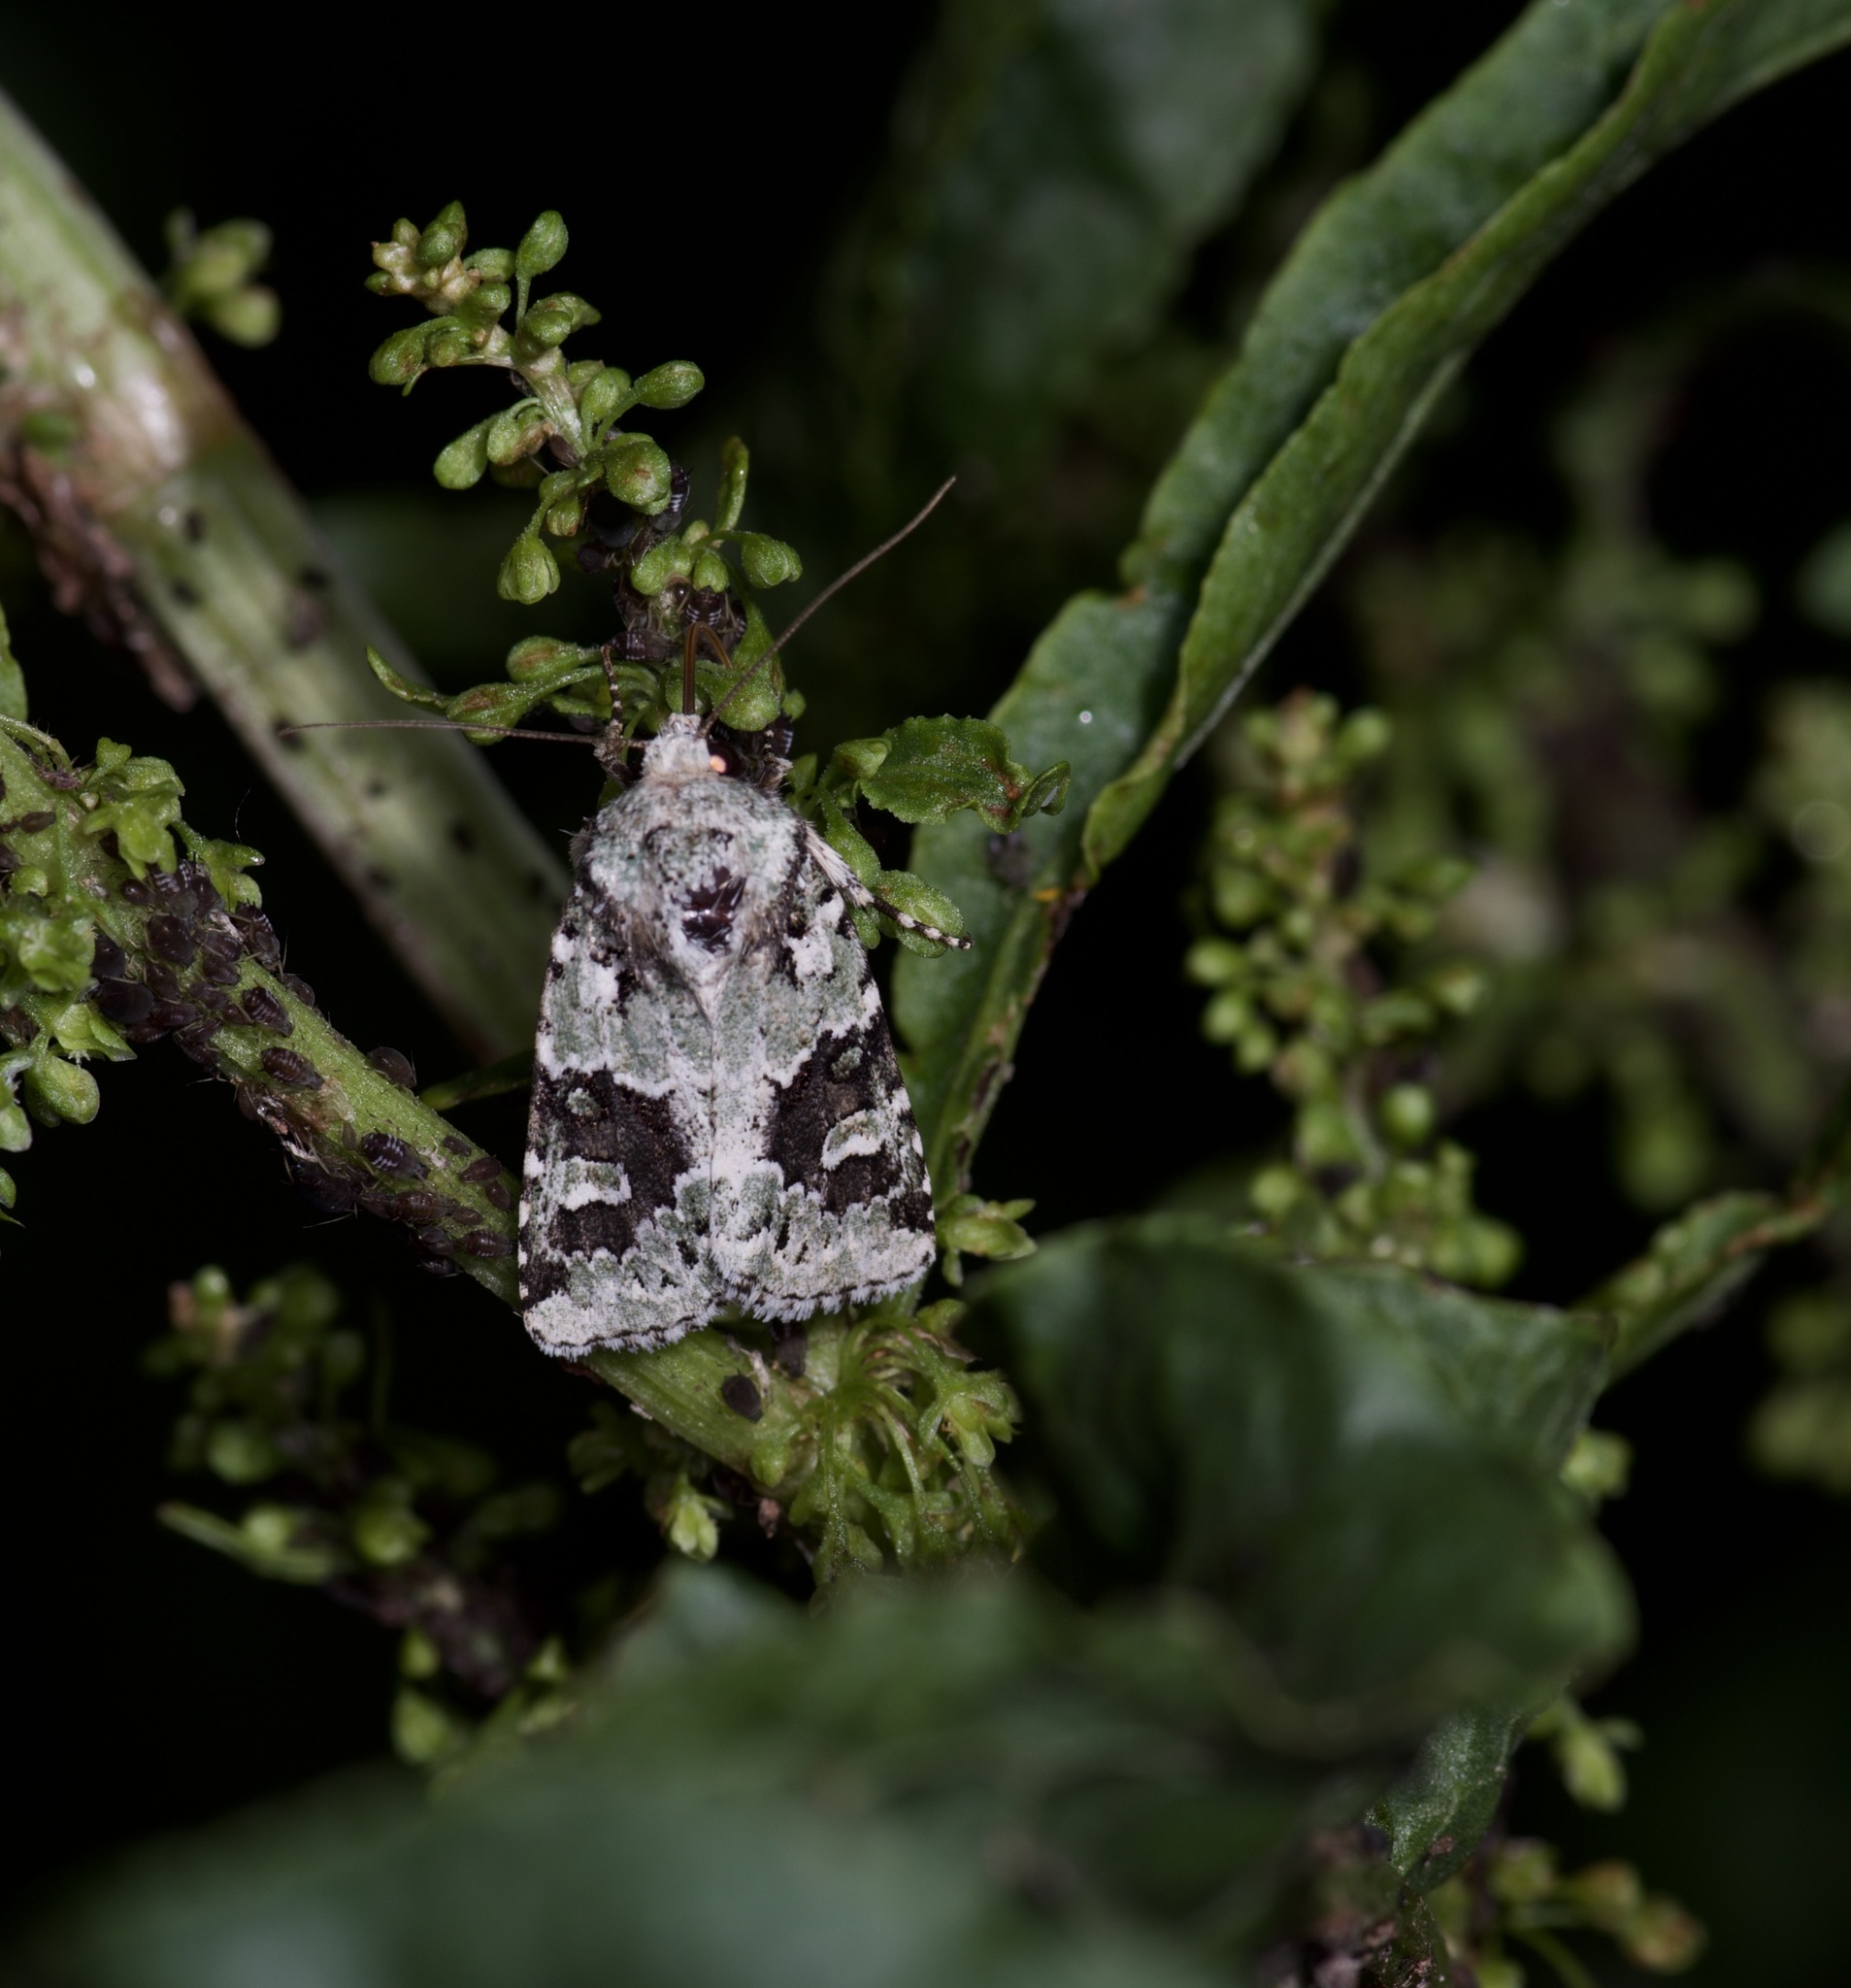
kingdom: Animalia
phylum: Arthropoda
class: Insecta
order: Lepidoptera
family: Noctuidae
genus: Lacinipolia
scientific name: Lacinipolia laudabilis
